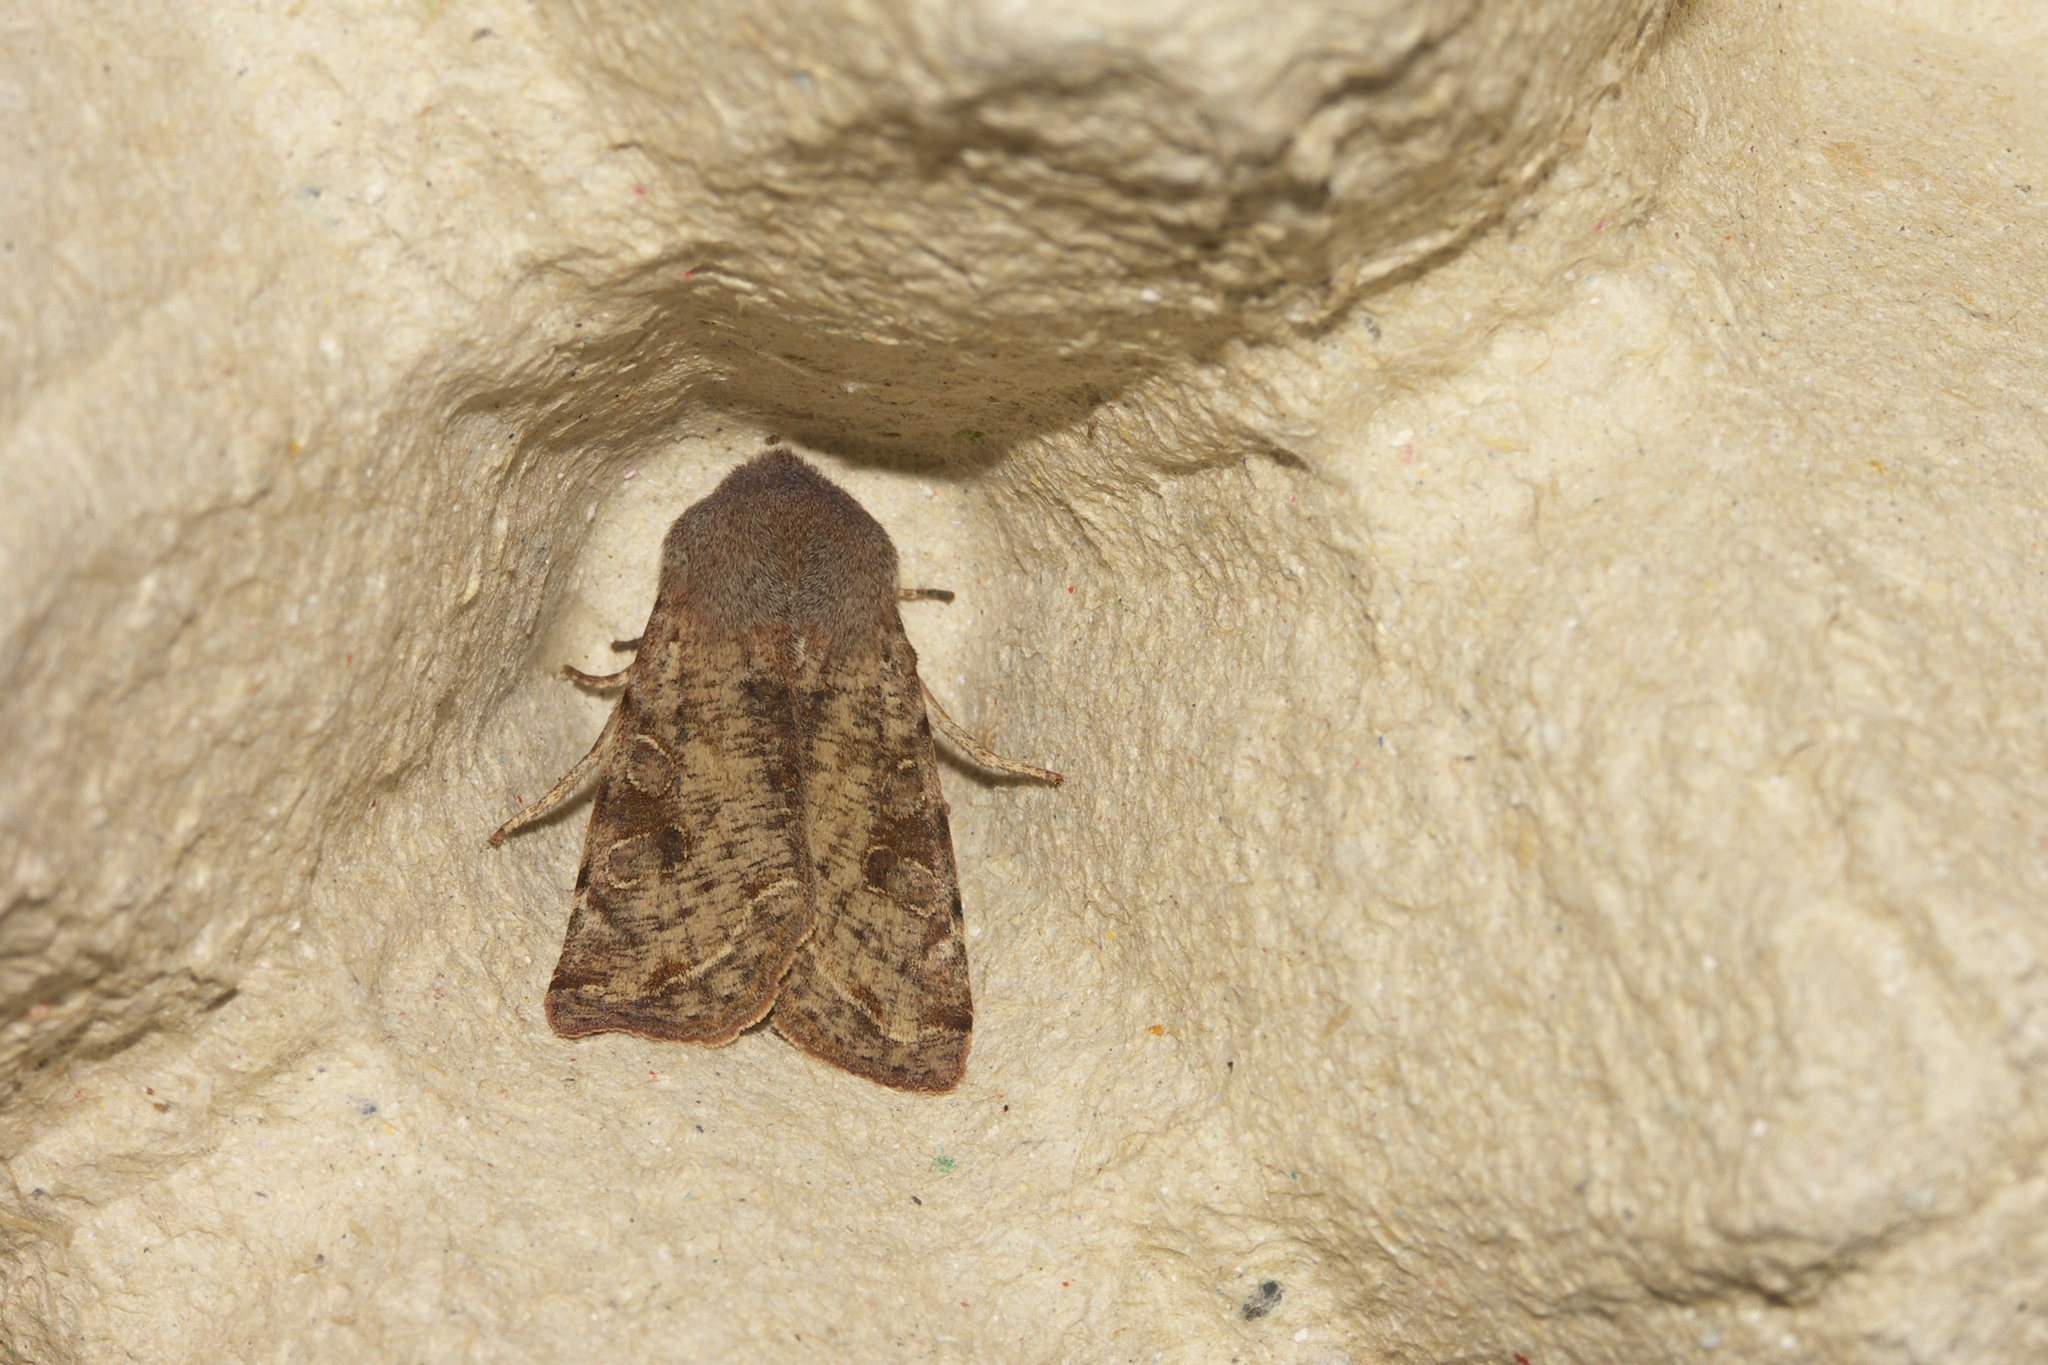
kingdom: Animalia
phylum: Arthropoda
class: Insecta
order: Lepidoptera
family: Noctuidae
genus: Orthosia
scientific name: Orthosia incerta
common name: Clouded drab
